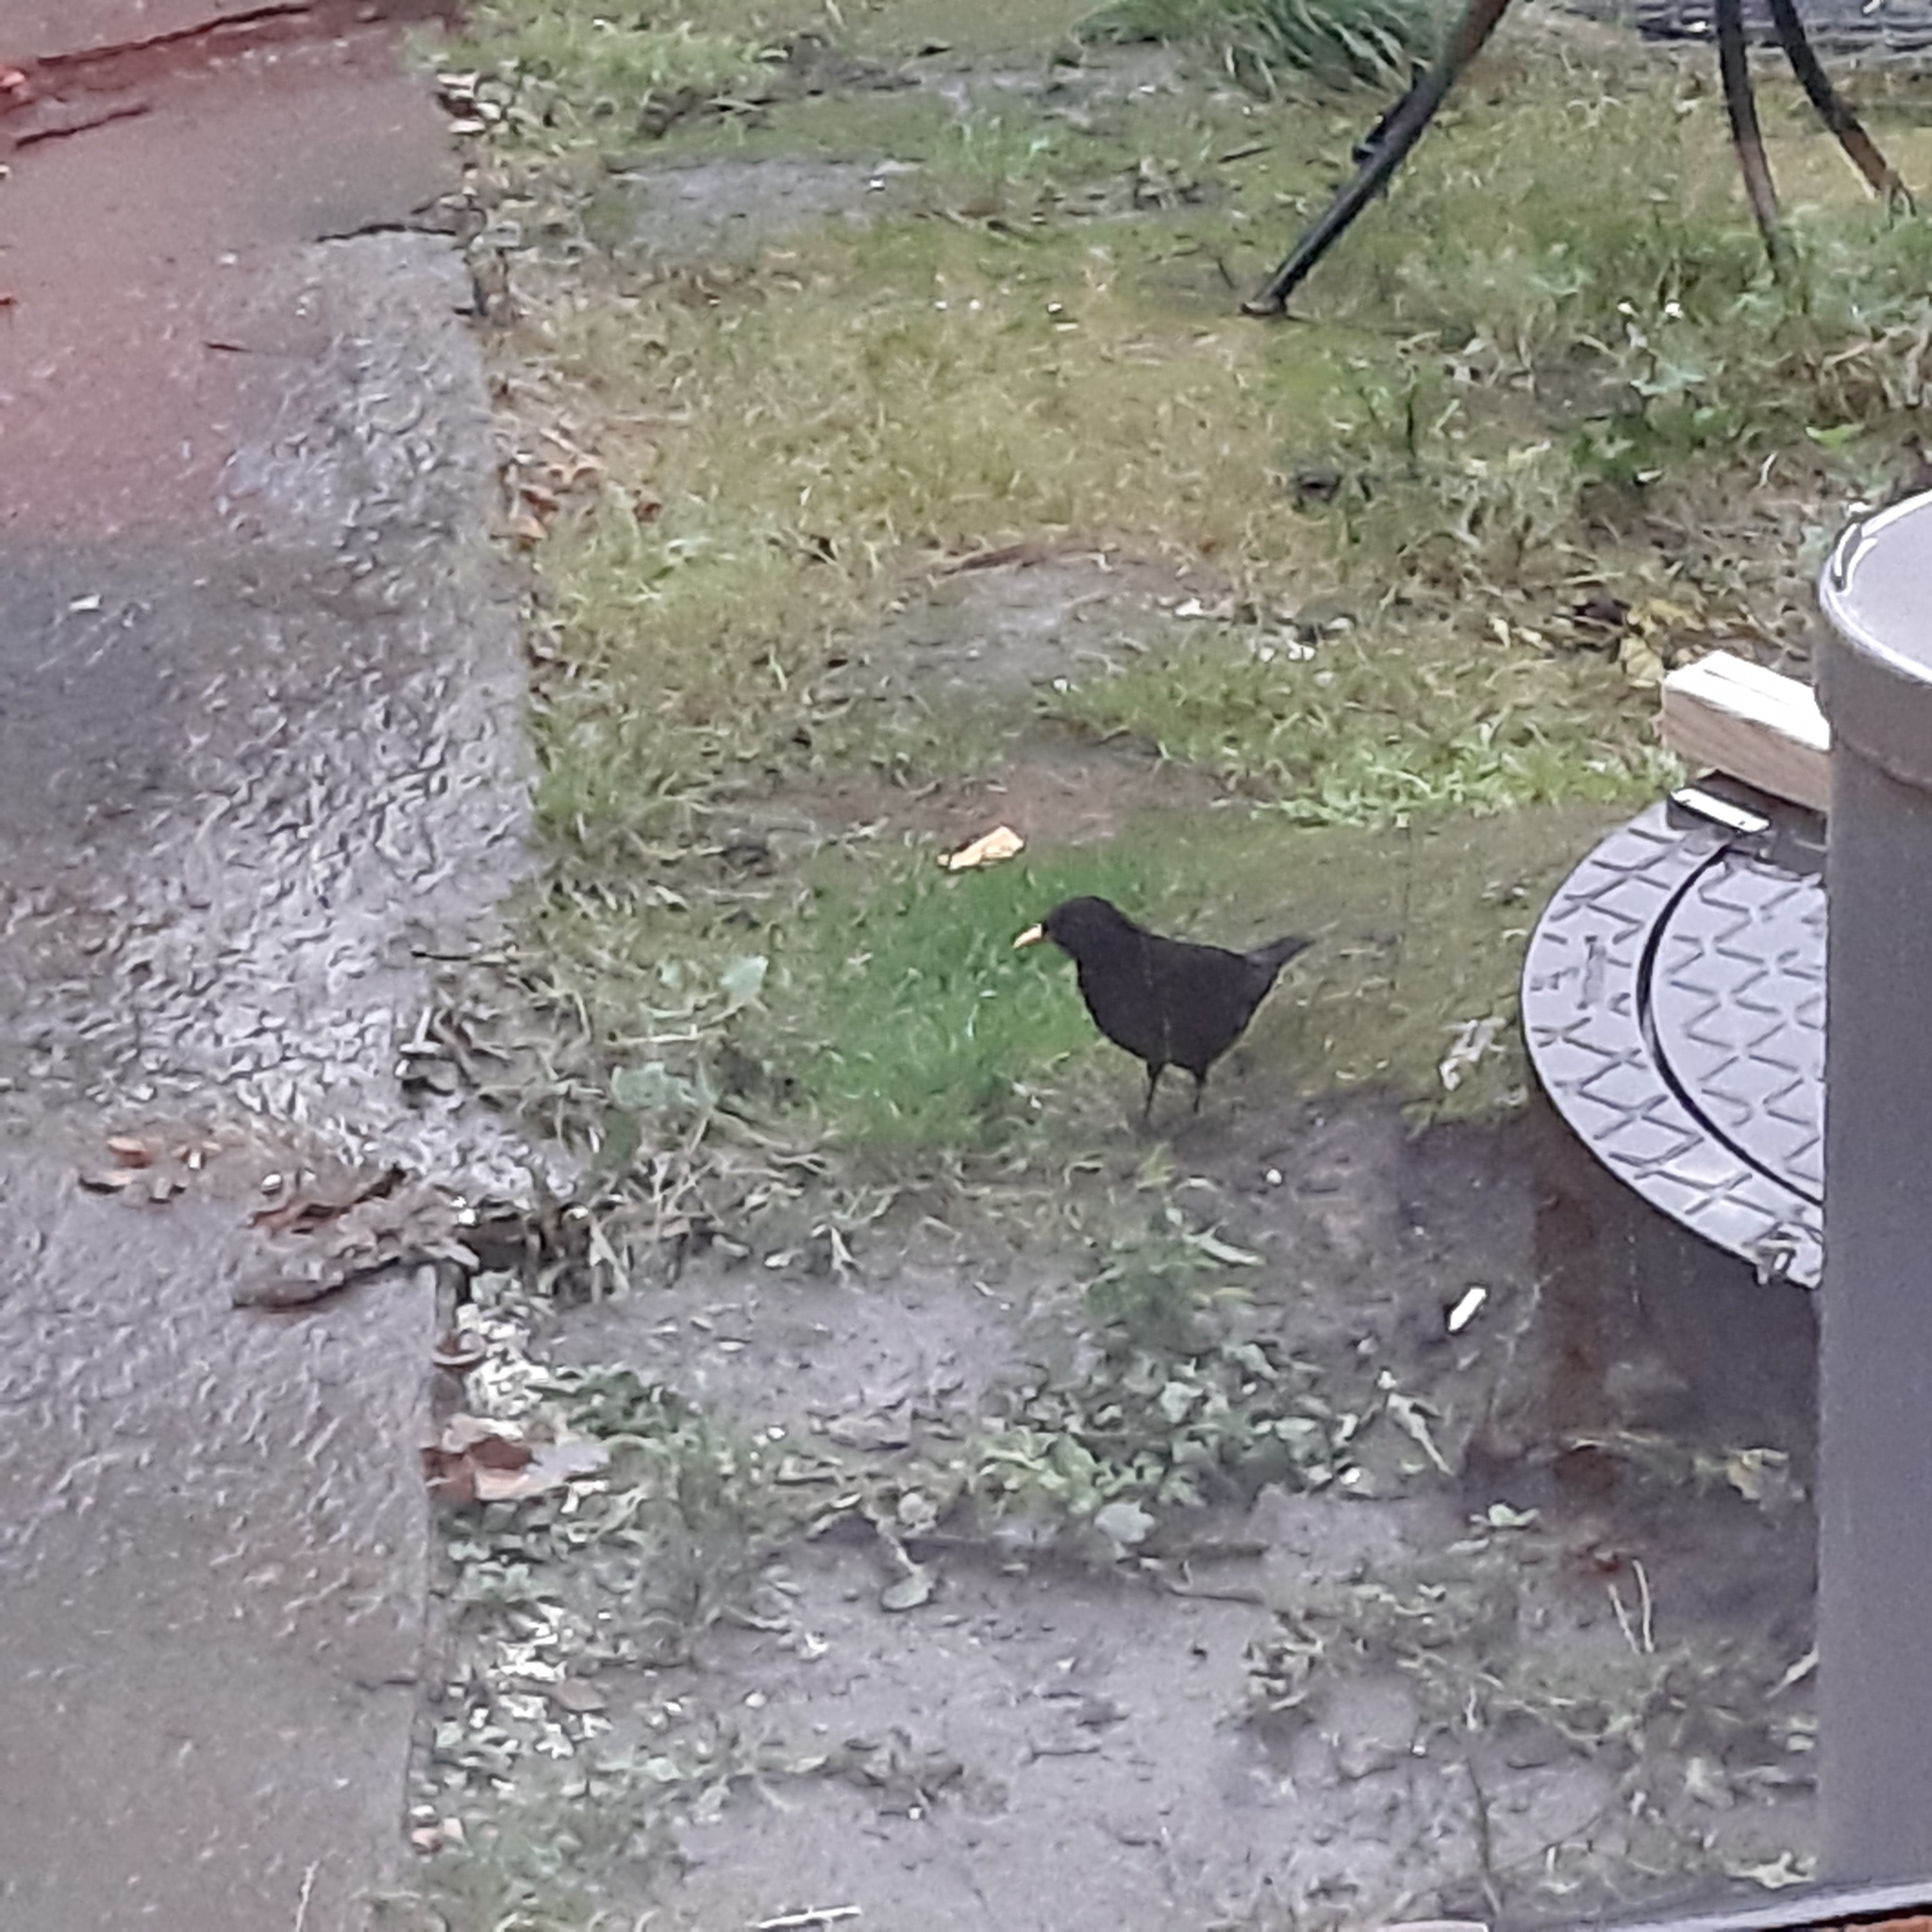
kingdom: Animalia
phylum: Chordata
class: Aves
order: Passeriformes
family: Turdidae
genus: Turdus
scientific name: Turdus merula
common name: Common blackbird
